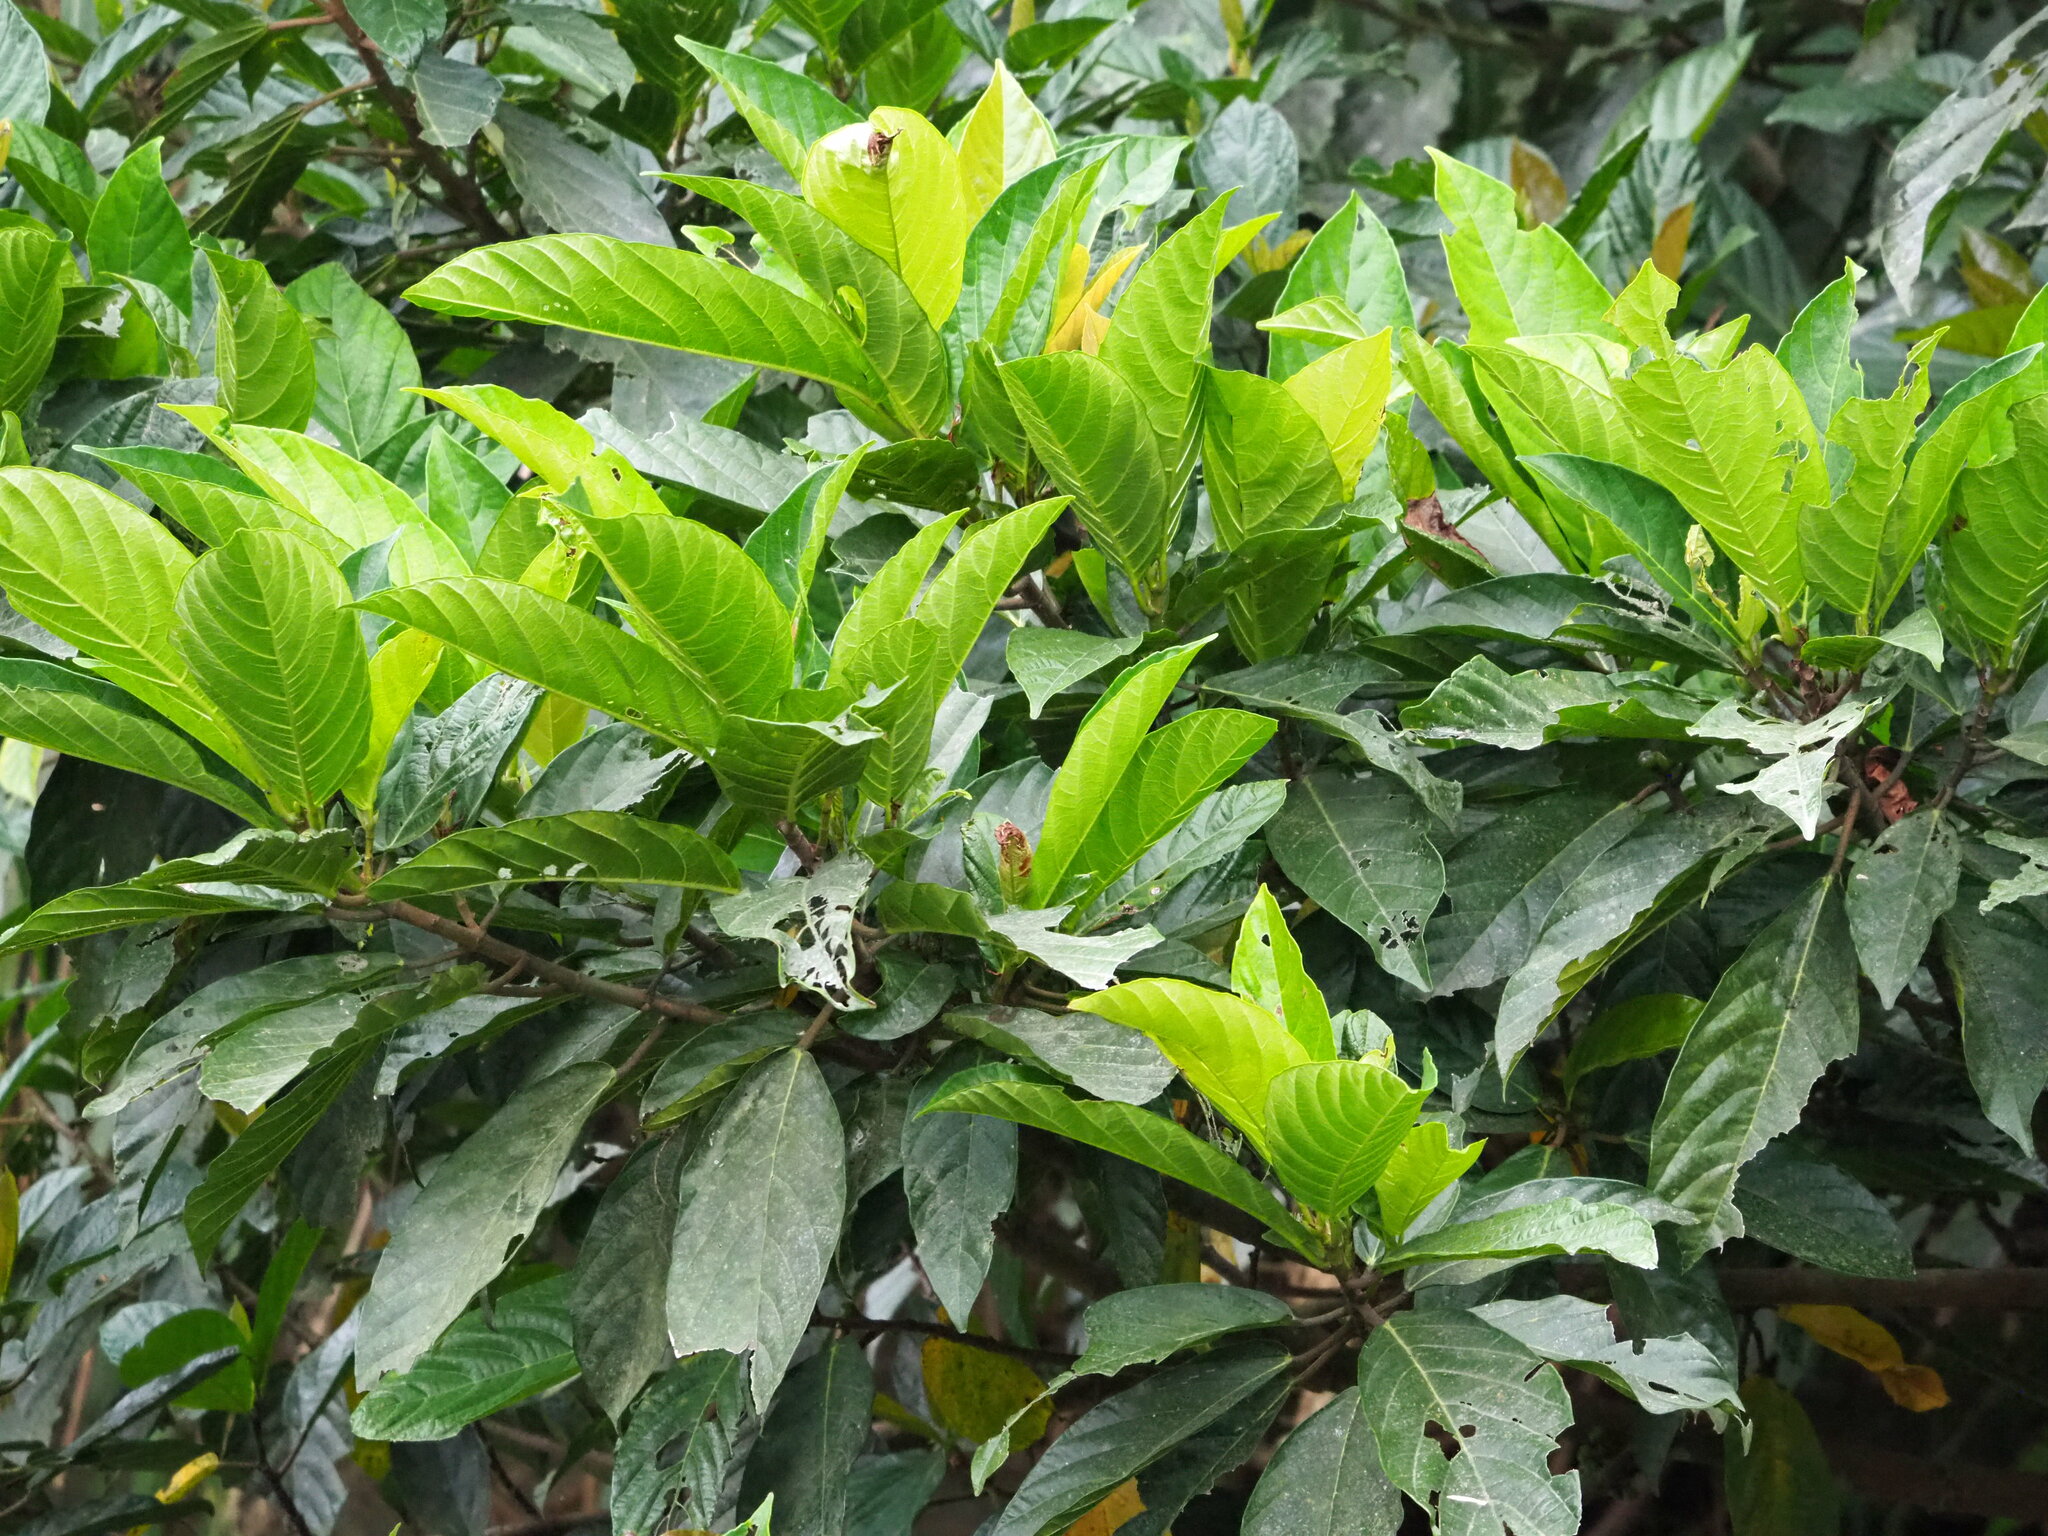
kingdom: Plantae
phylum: Tracheophyta
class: Magnoliopsida
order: Rosales
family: Moraceae
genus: Ficus
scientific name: Ficus benguetensis
